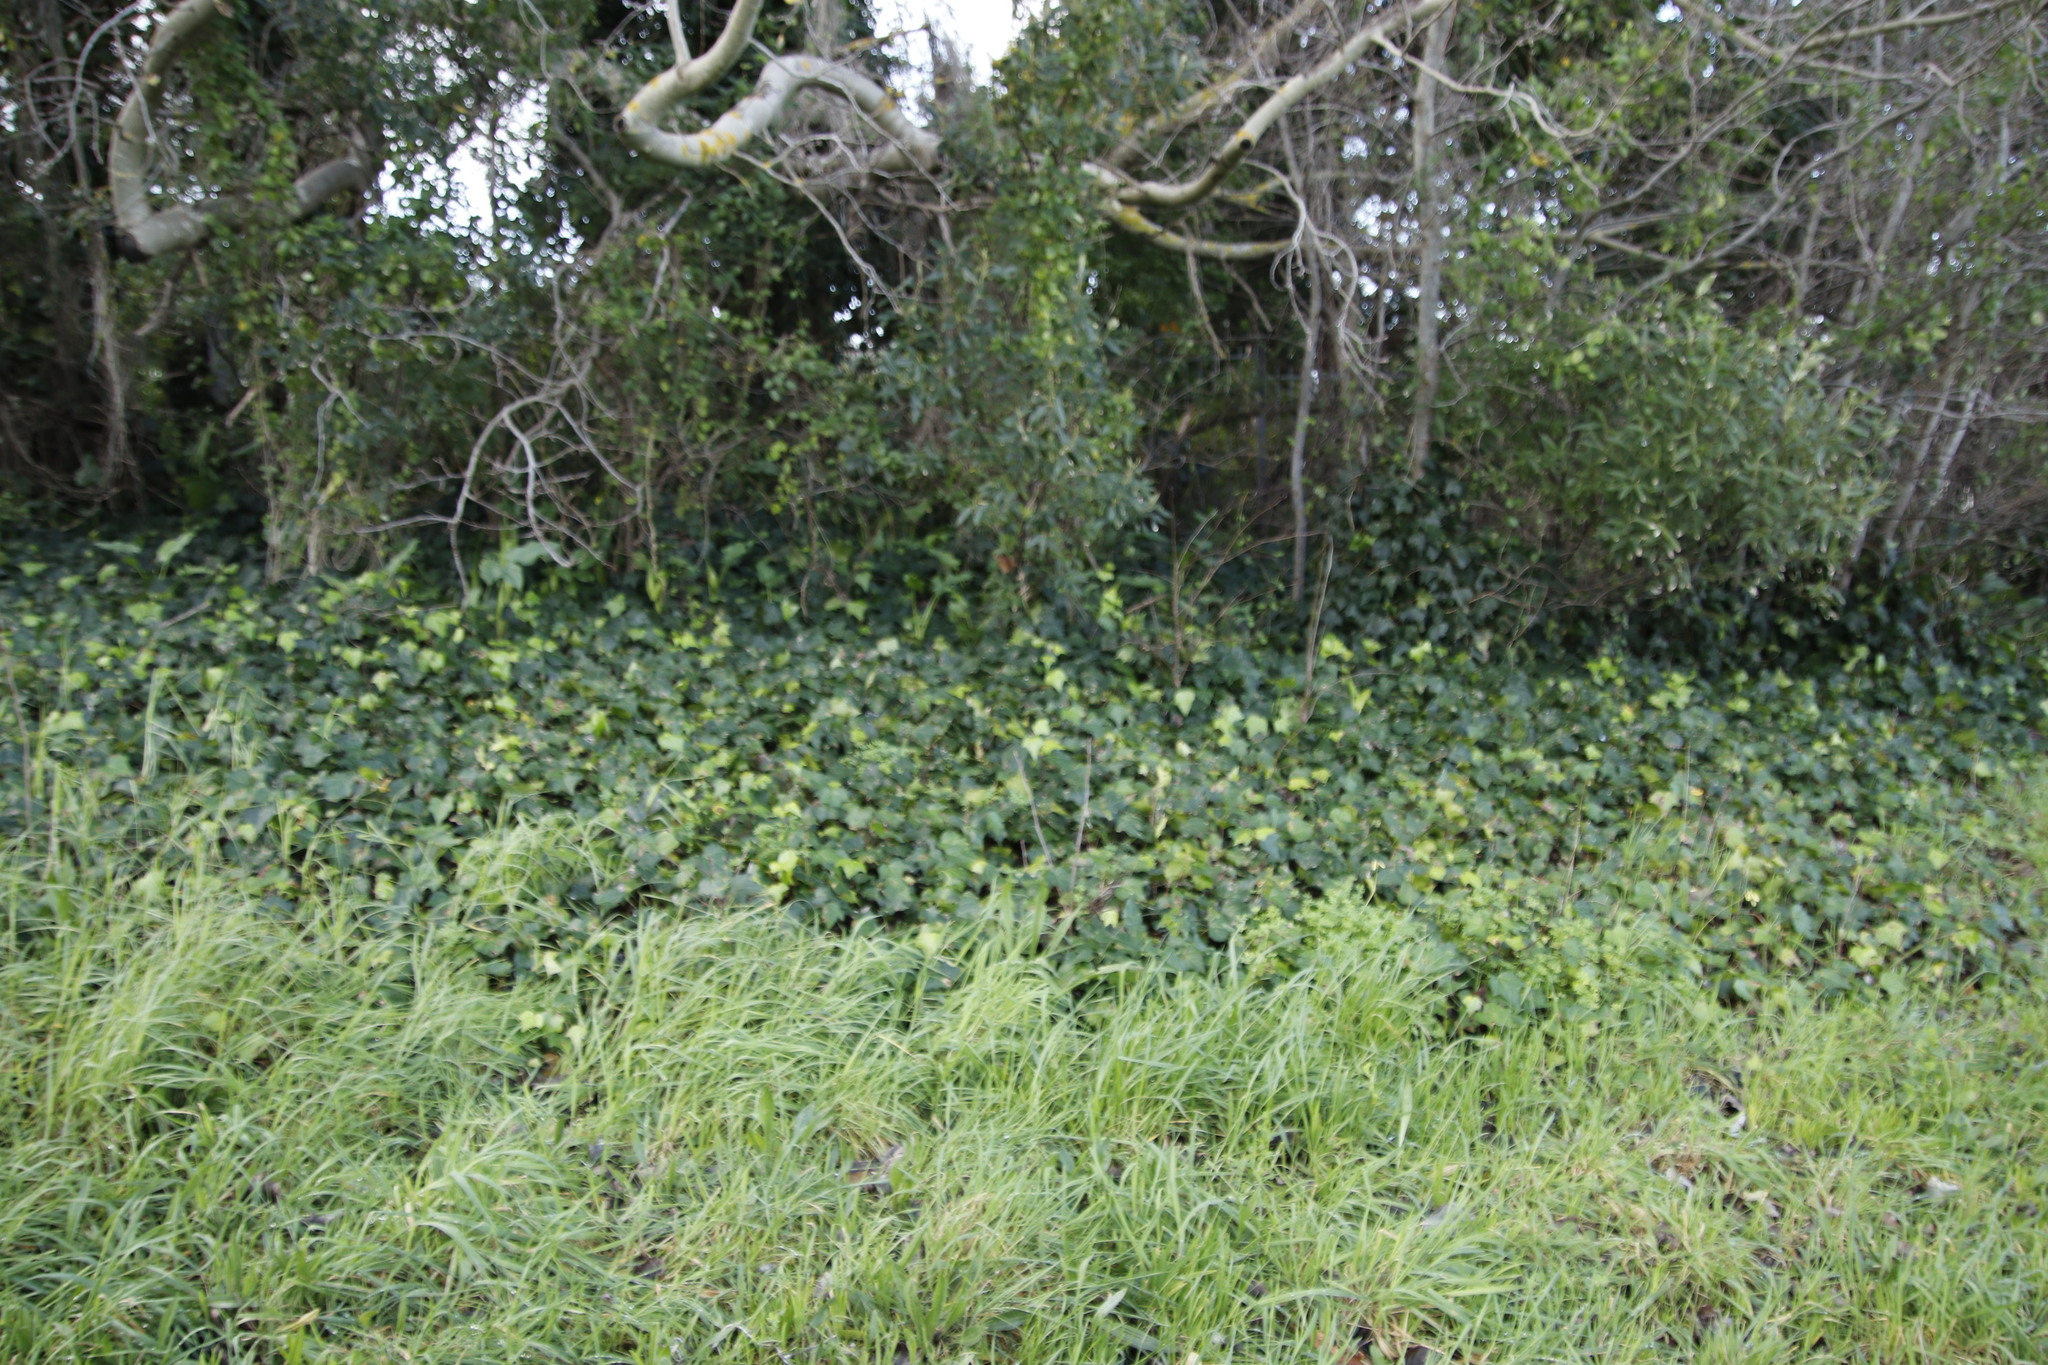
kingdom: Plantae
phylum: Tracheophyta
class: Liliopsida
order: Poales
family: Poaceae
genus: Cenchrus
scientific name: Cenchrus clandestinus
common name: Kikuyugrass
